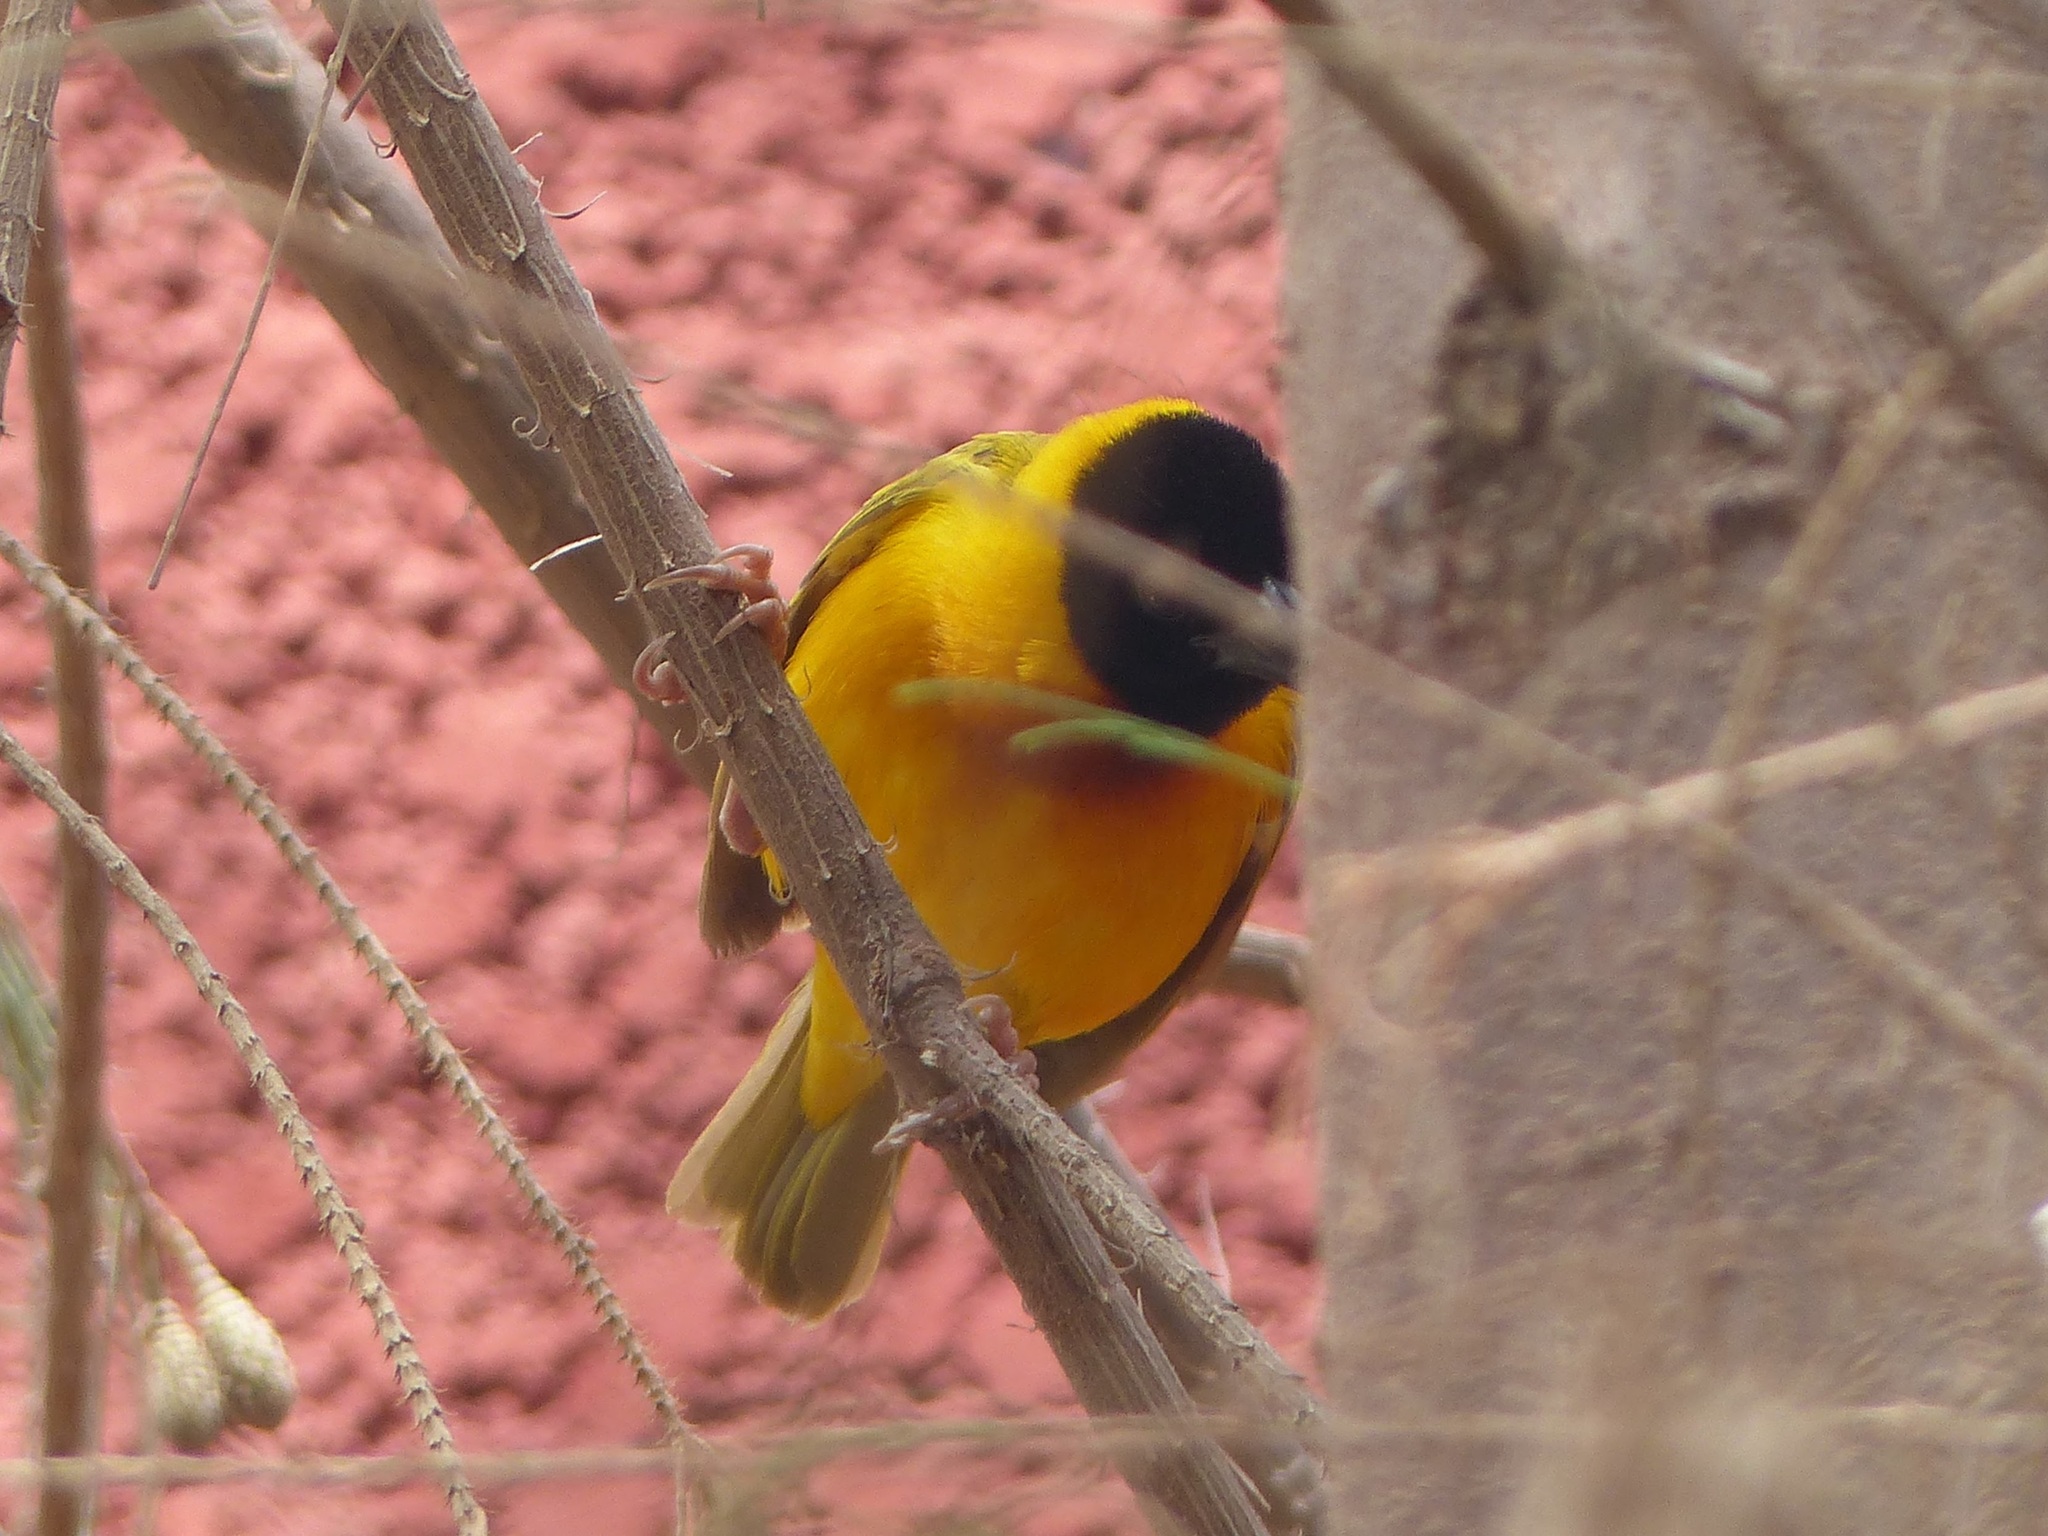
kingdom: Animalia
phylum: Chordata
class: Aves
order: Passeriformes
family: Ploceidae
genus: Ploceus
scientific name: Ploceus melanocephalus
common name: Black-headed weaver
